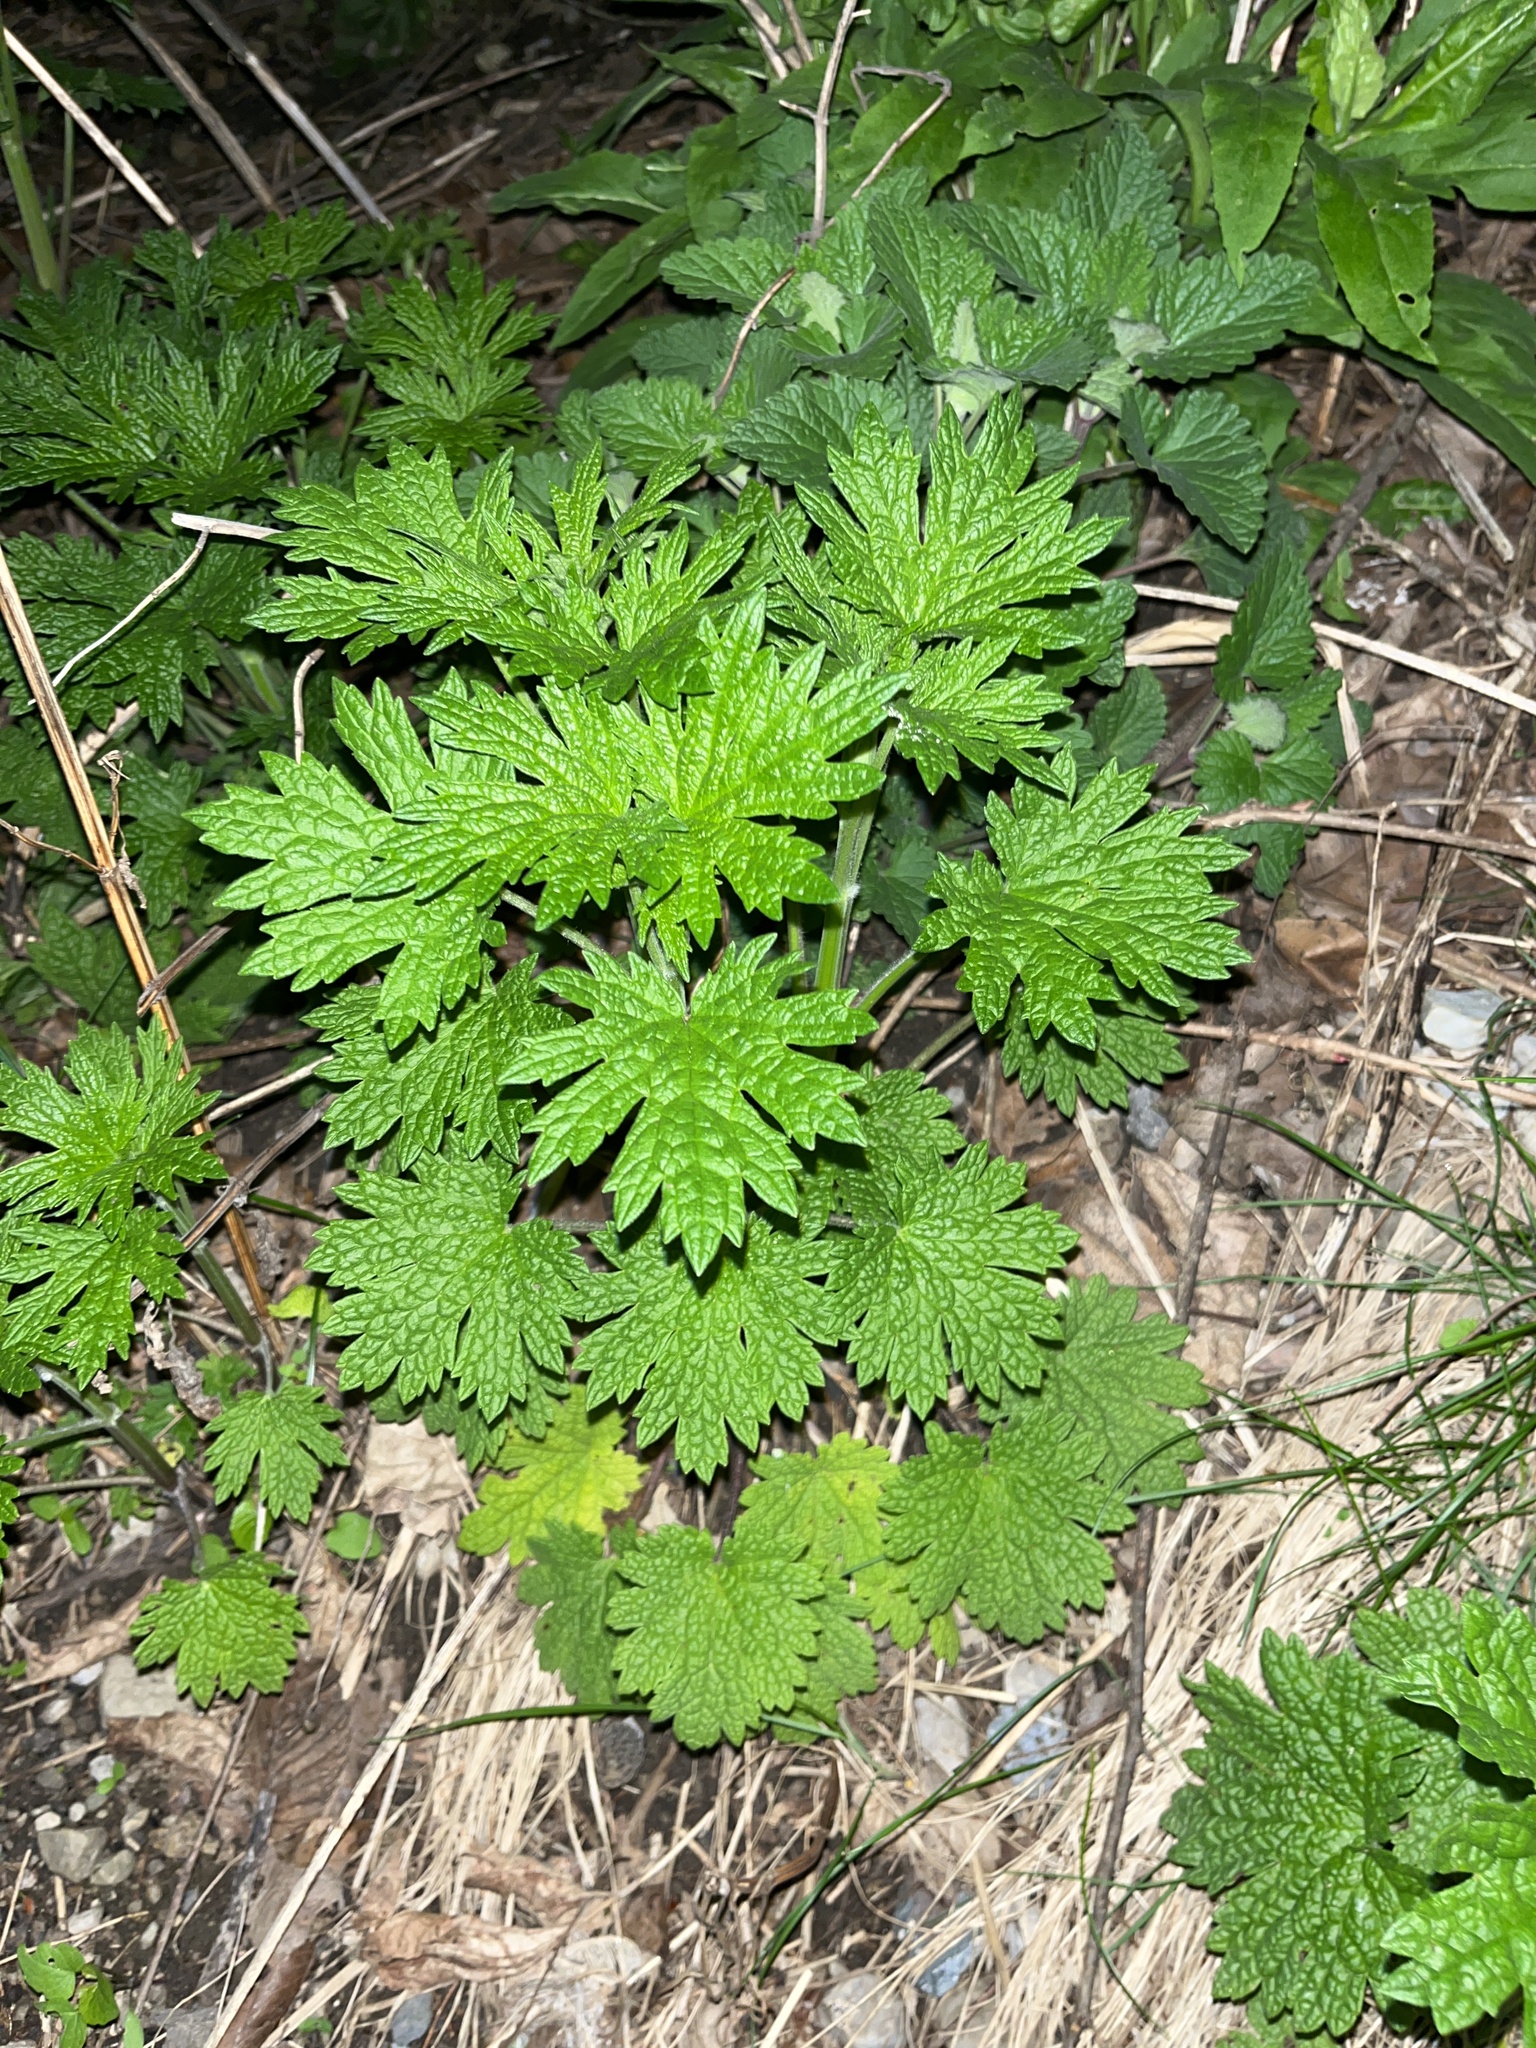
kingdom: Plantae
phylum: Tracheophyta
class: Magnoliopsida
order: Lamiales
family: Lamiaceae
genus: Leonurus
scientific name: Leonurus cardiaca
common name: Motherwort
